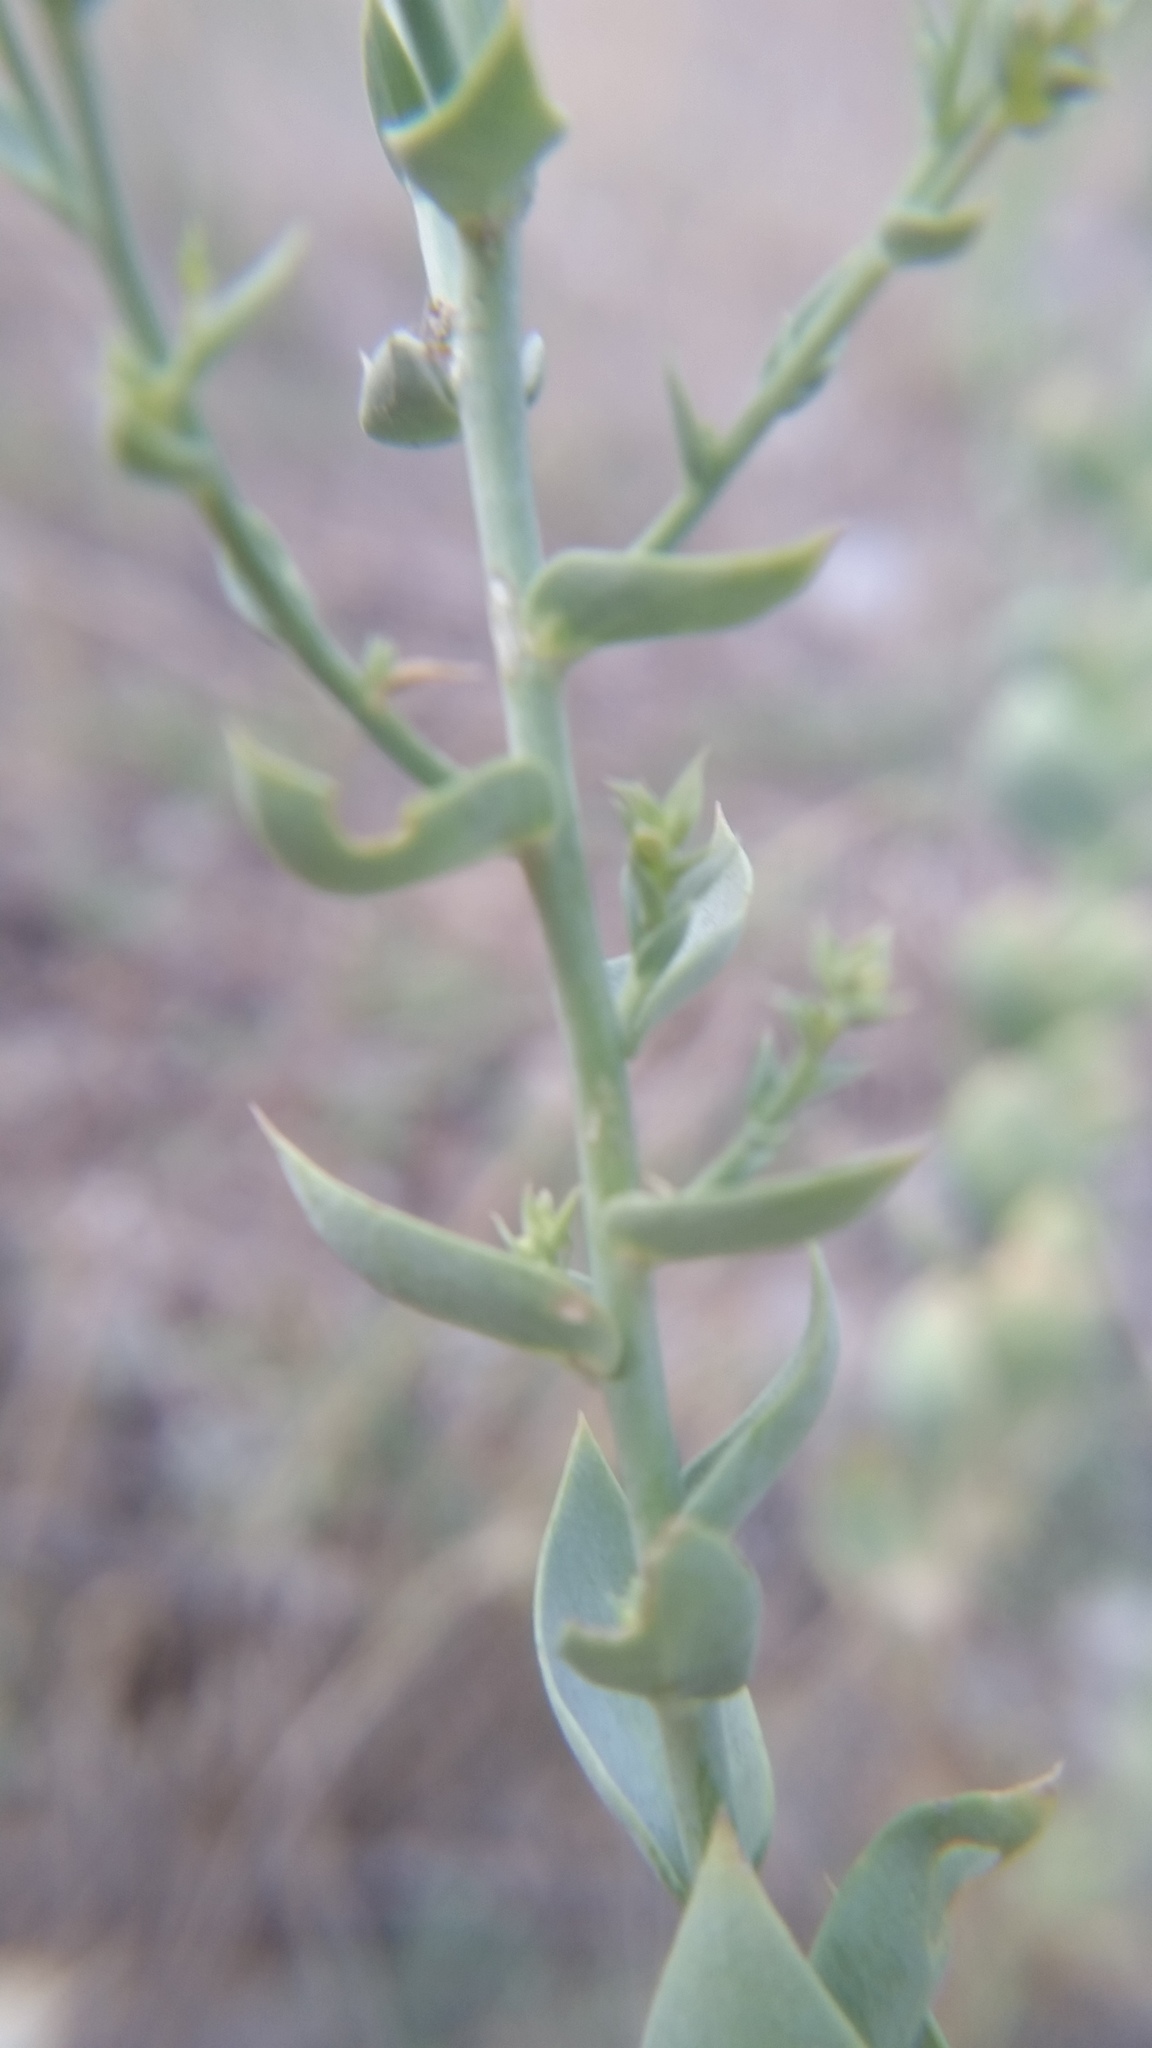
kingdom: Plantae
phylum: Tracheophyta
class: Magnoliopsida
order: Lamiales
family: Plantaginaceae
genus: Linaria
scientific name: Linaria dalmatica
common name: Dalmatian toadflax
